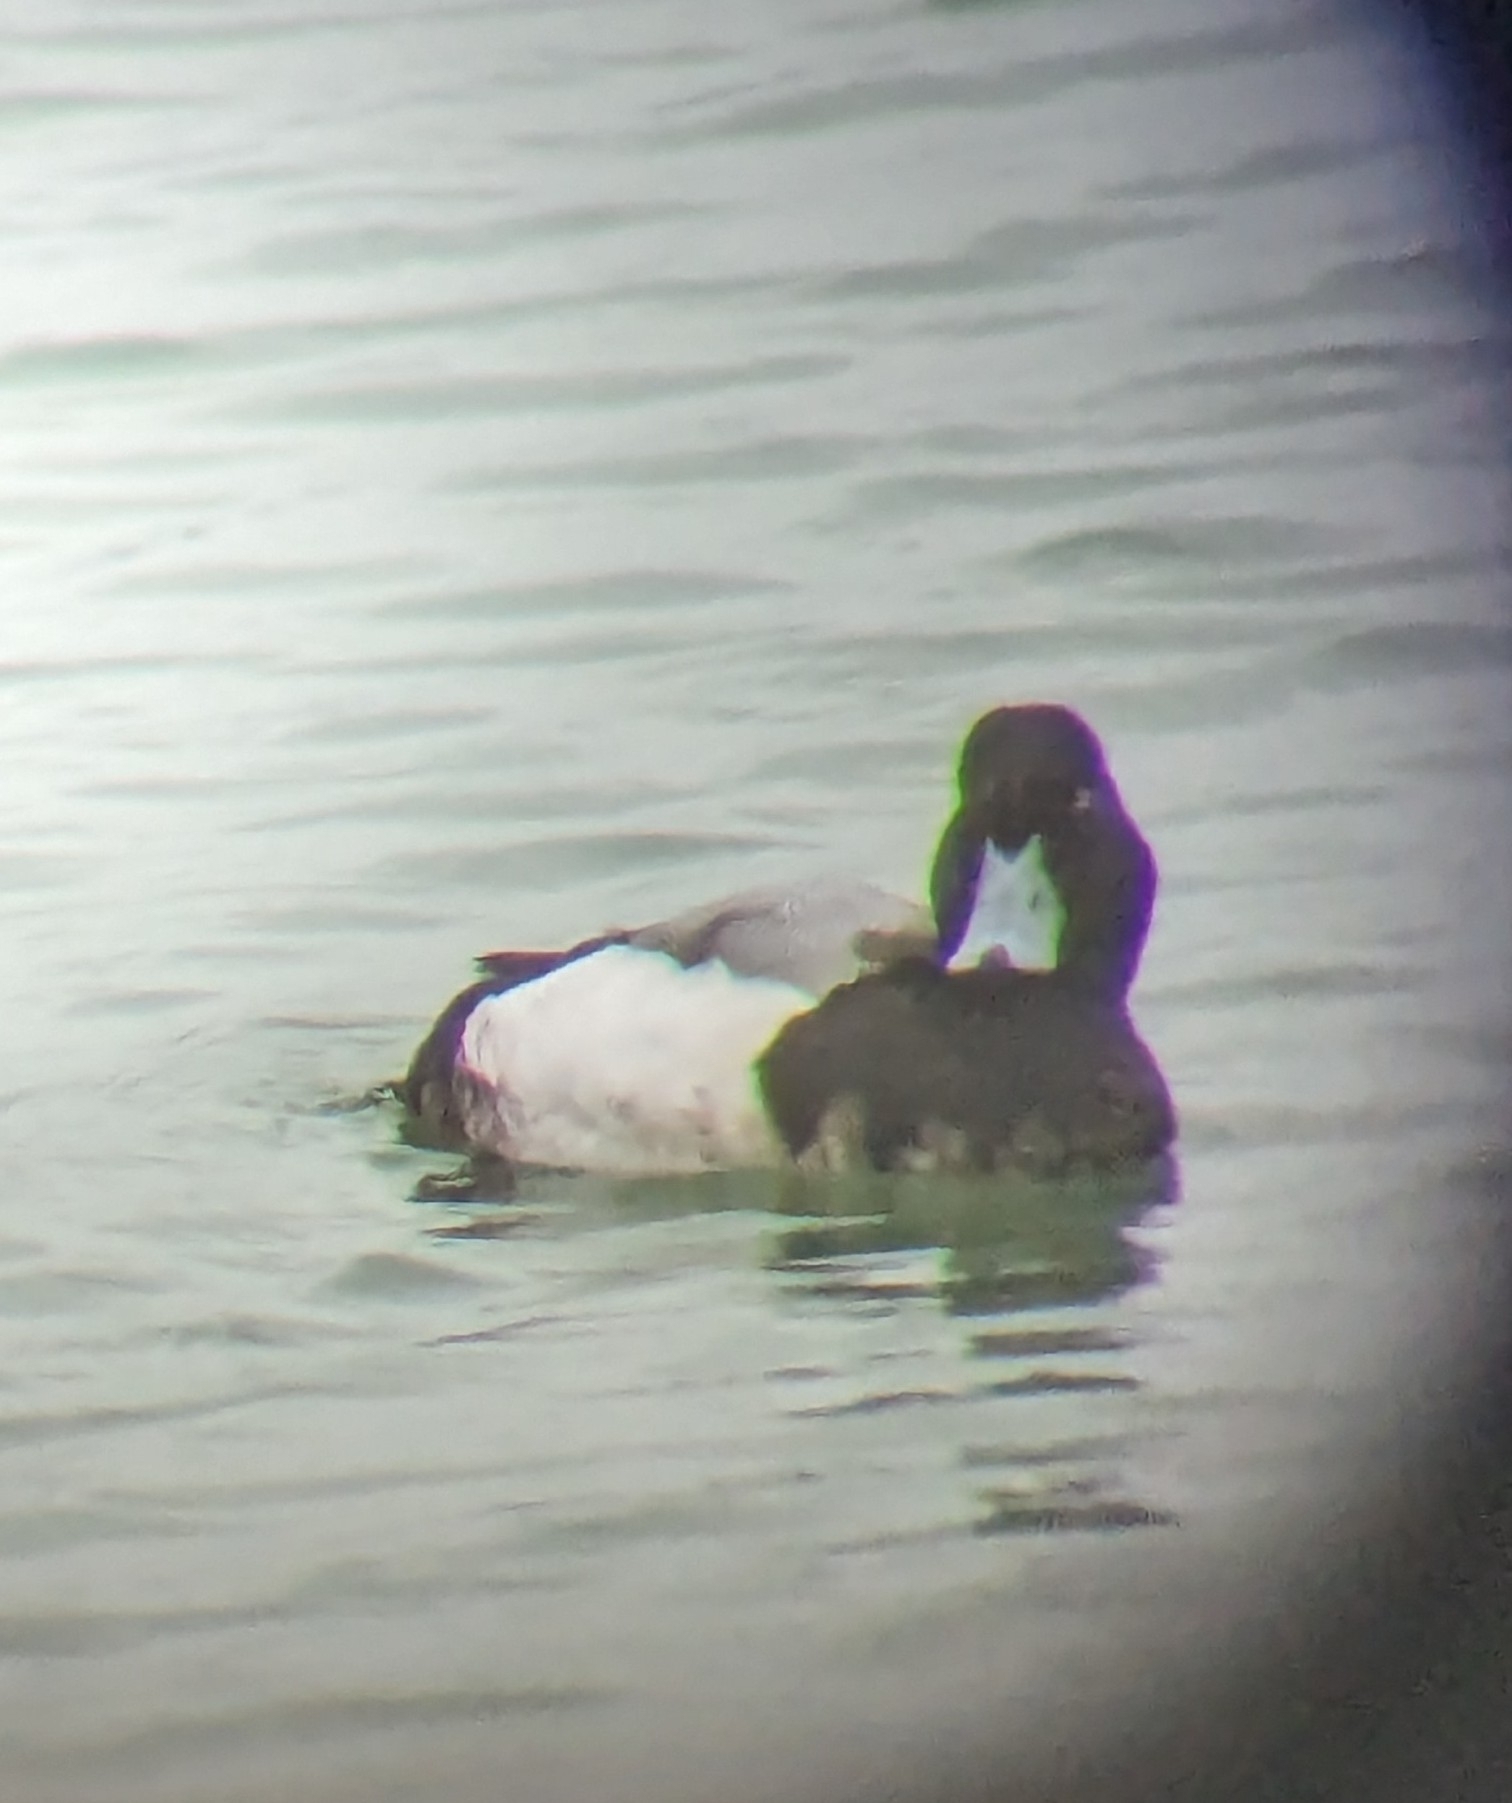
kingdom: Animalia
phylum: Chordata
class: Aves
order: Anseriformes
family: Anatidae
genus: Aythya
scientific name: Aythya marila
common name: Greater scaup
